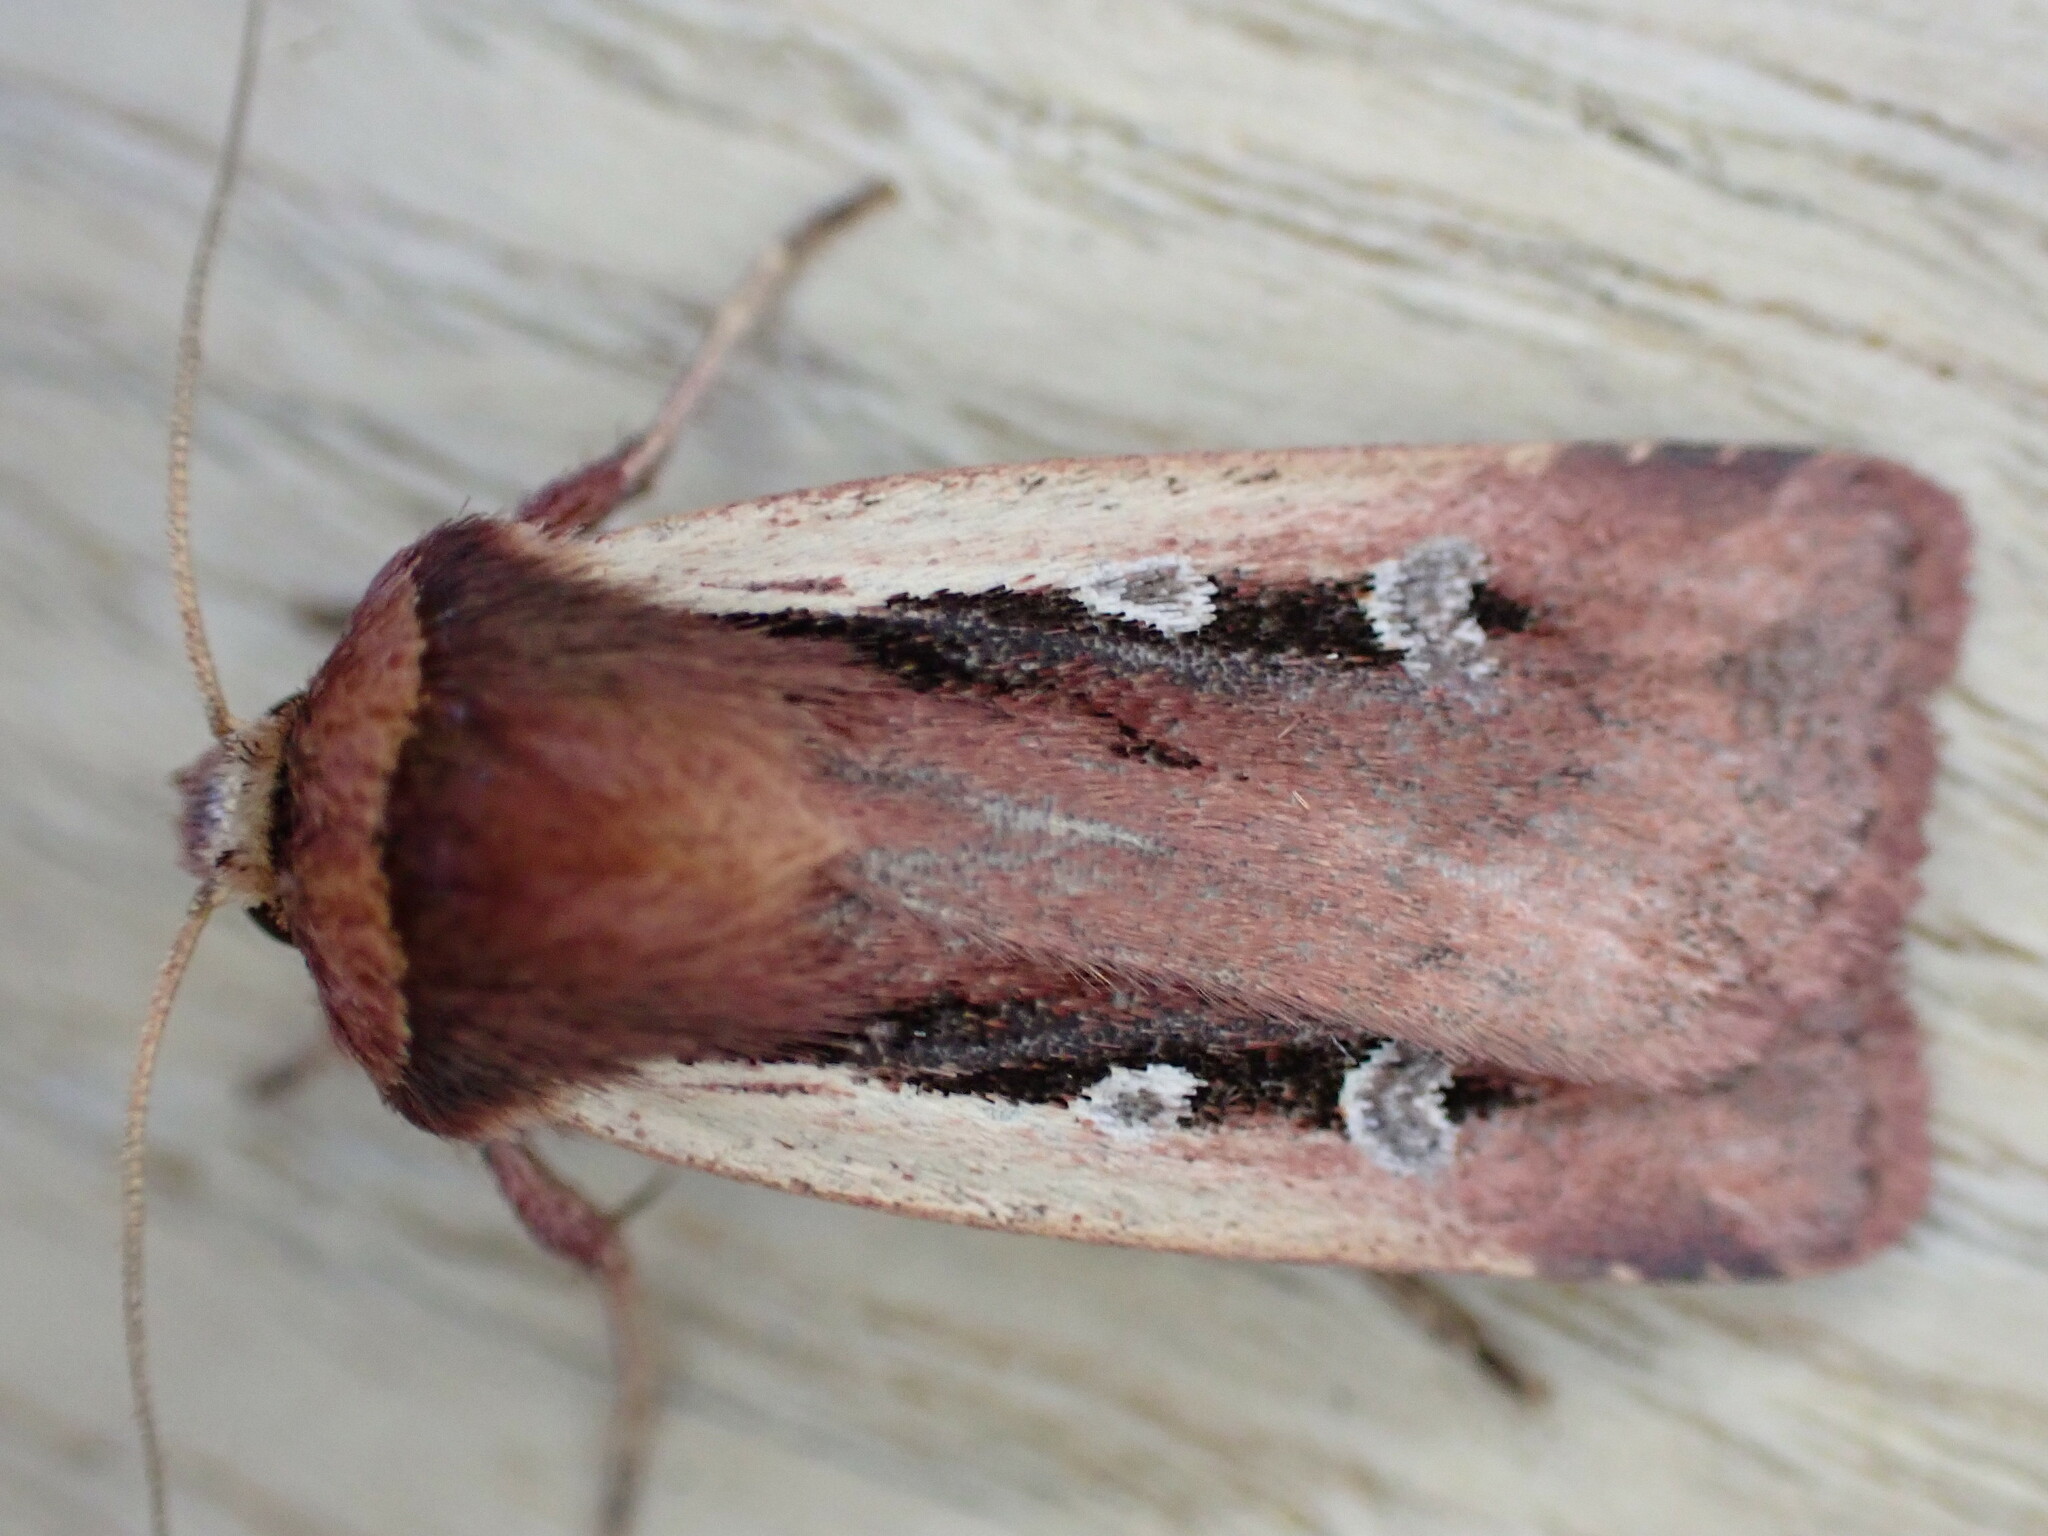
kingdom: Animalia
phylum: Arthropoda
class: Insecta
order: Lepidoptera
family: Noctuidae
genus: Ochropleura
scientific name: Ochropleura plecta
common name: Flame shoulder
